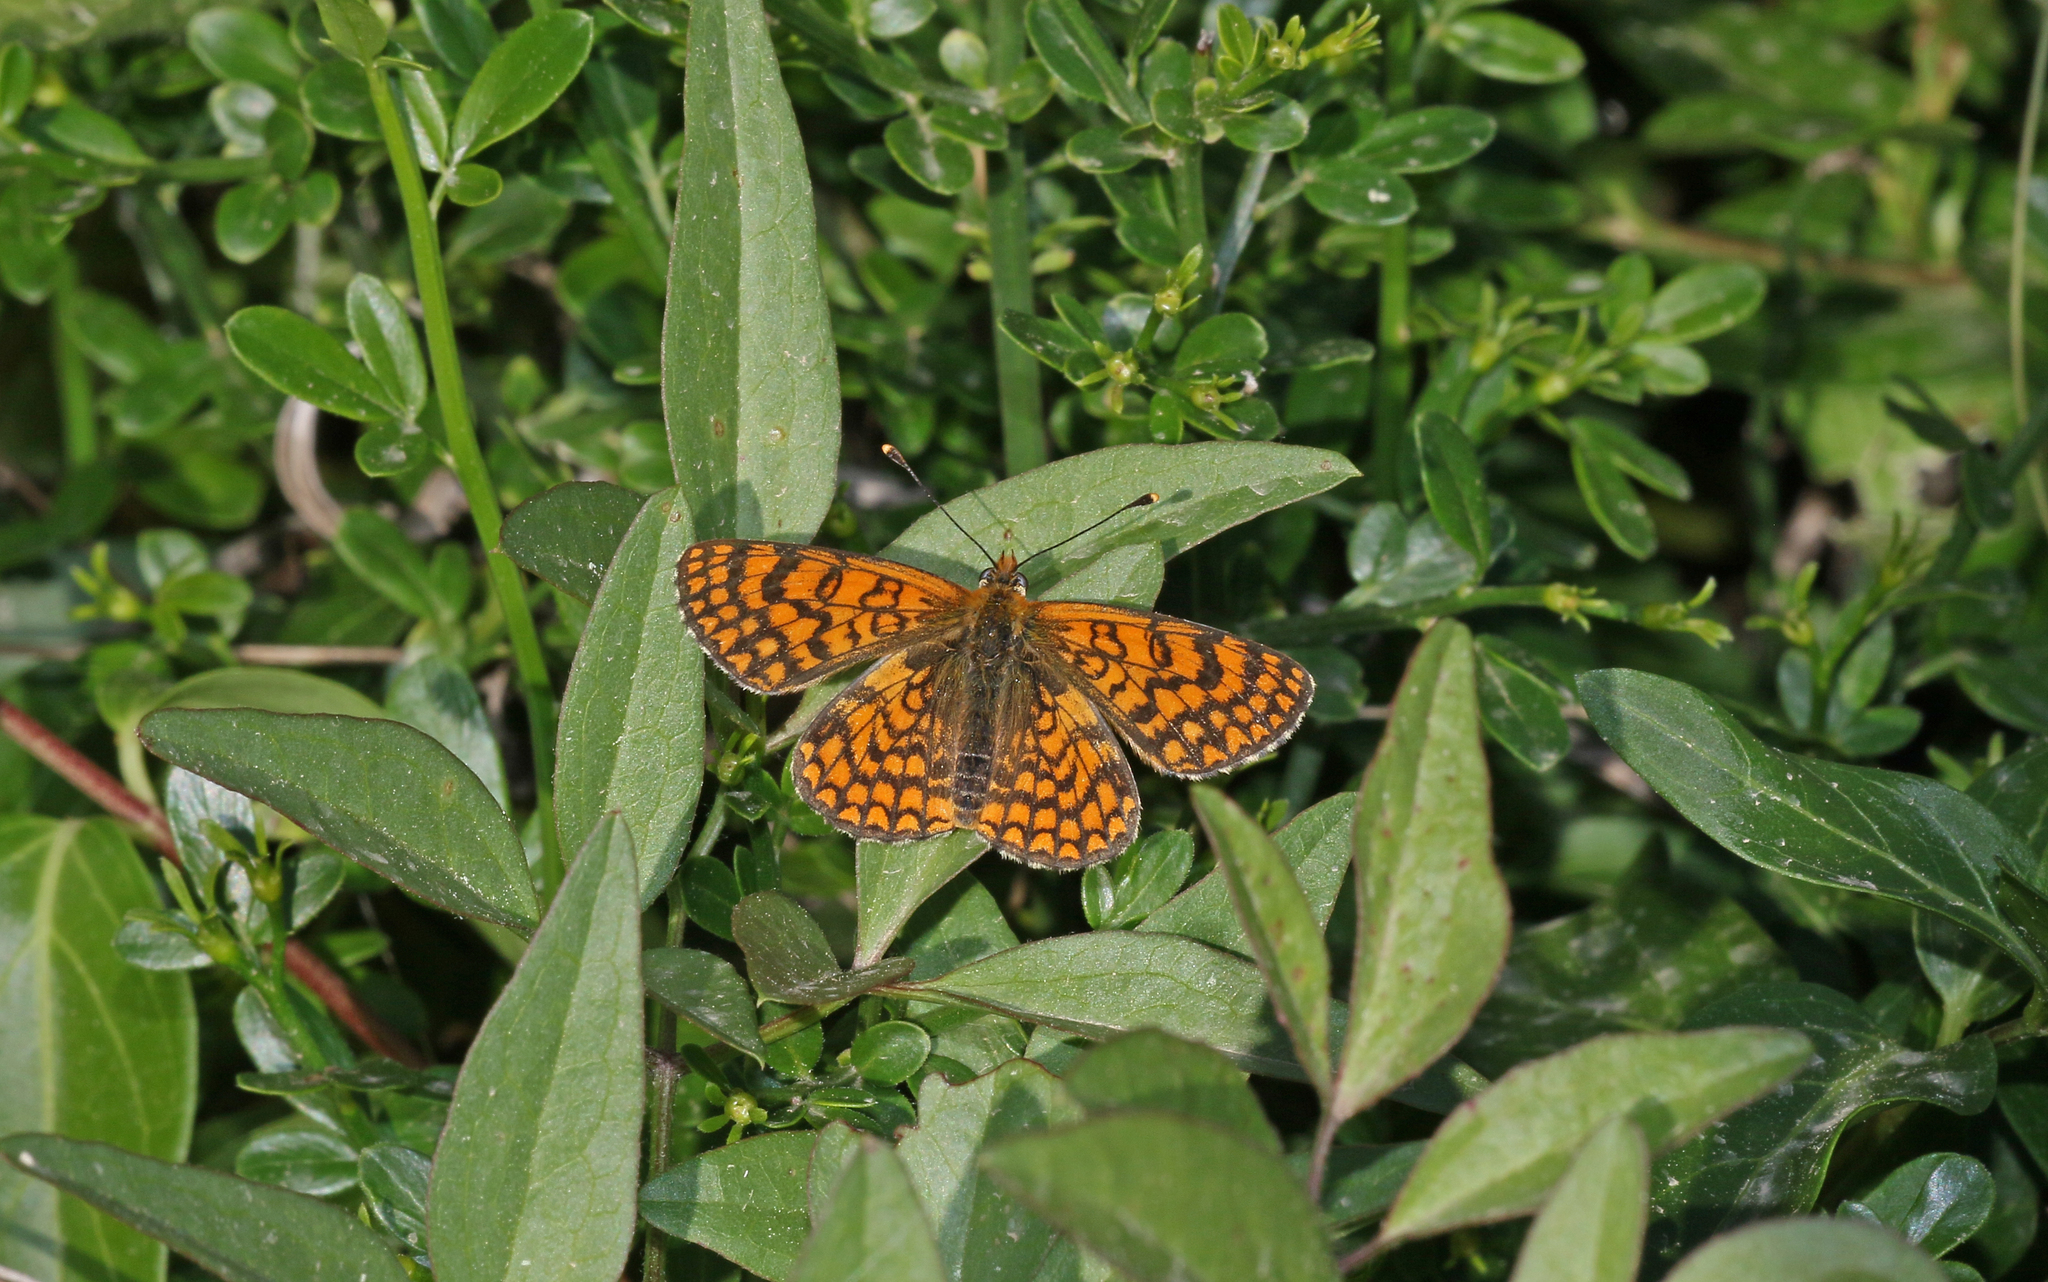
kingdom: Animalia
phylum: Arthropoda
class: Insecta
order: Lepidoptera
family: Nymphalidae
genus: Melitaea
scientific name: Melitaea deione
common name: Provençal fritillary
